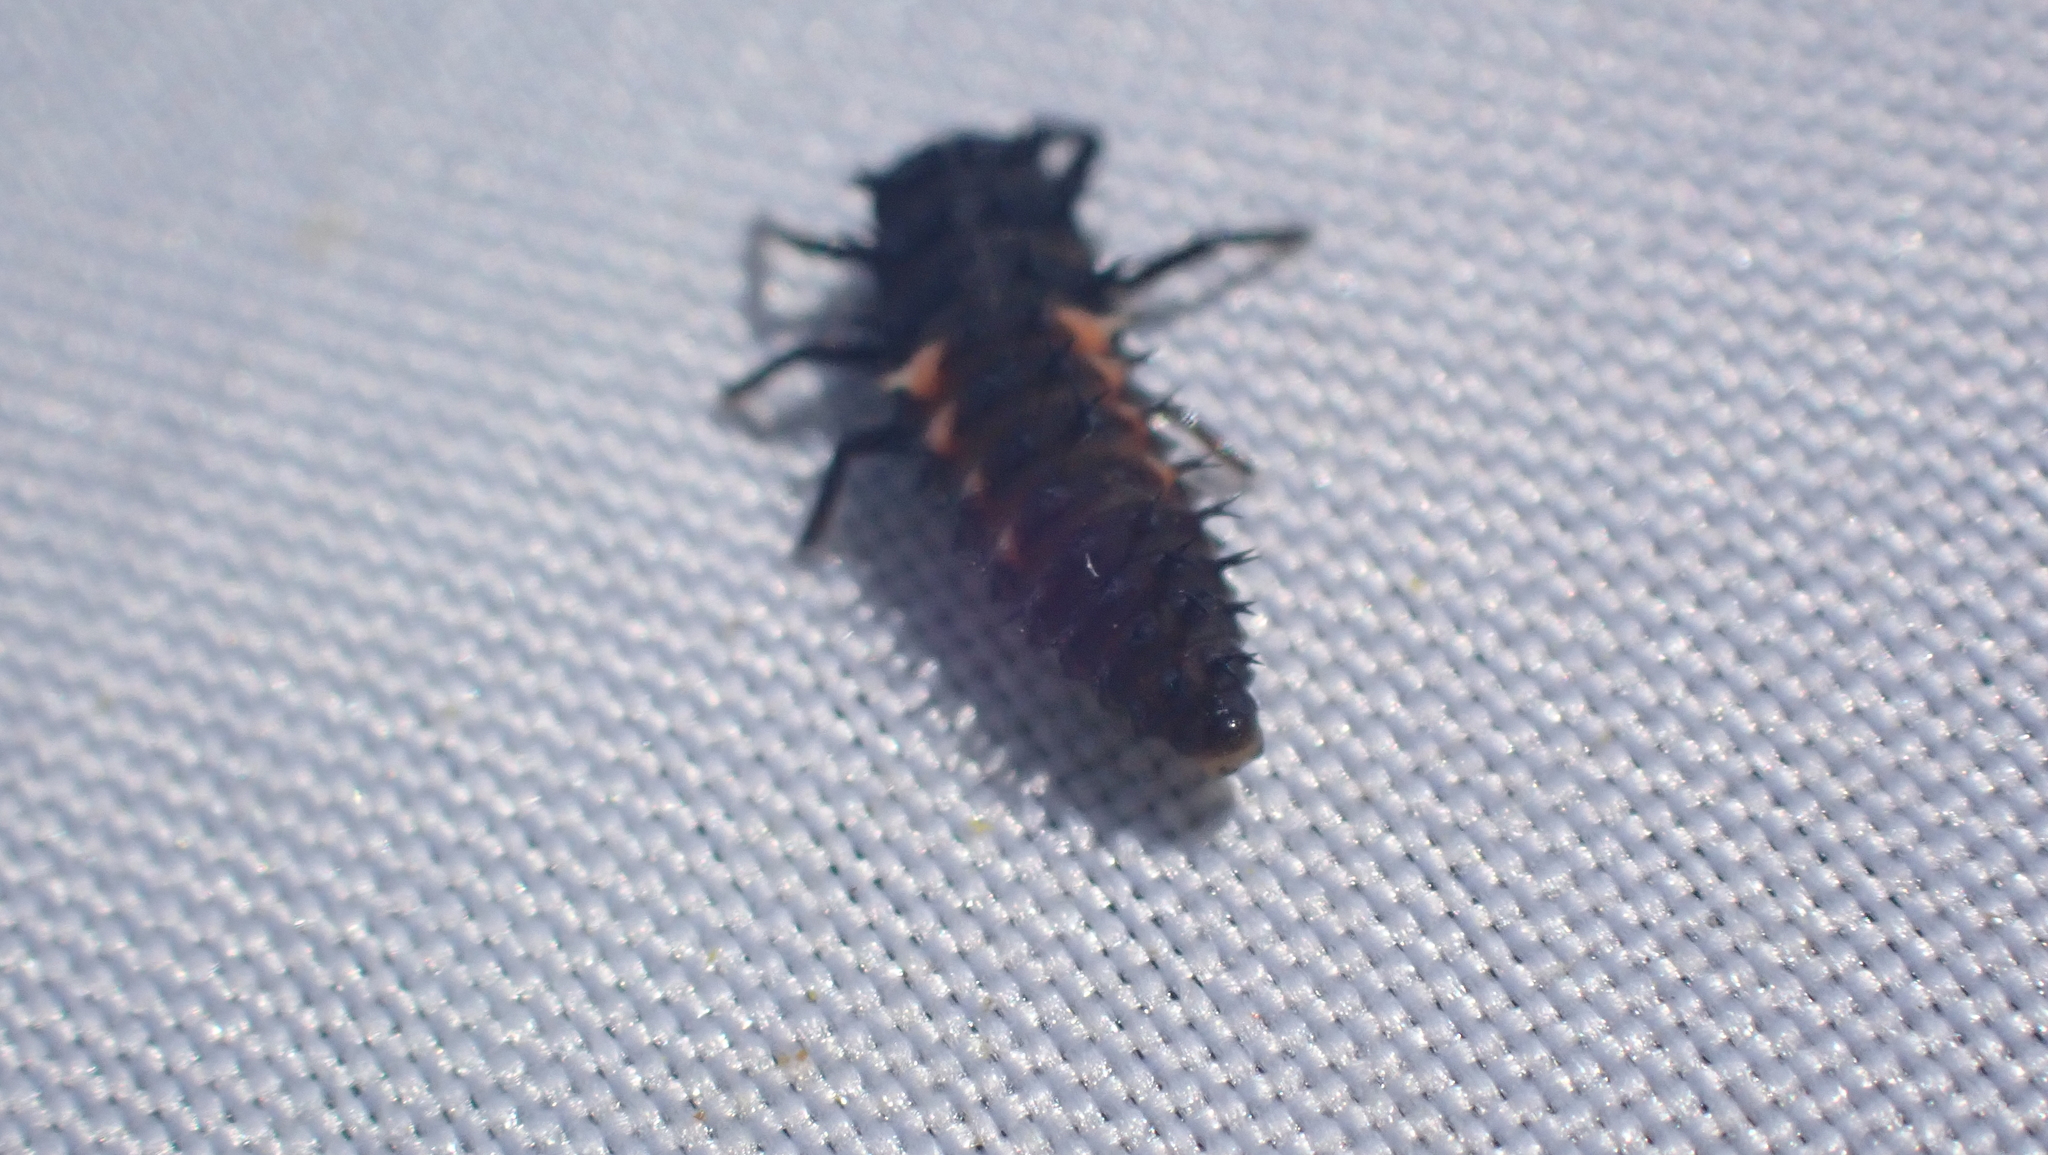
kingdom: Animalia
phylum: Arthropoda
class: Insecta
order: Coleoptera
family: Coccinellidae
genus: Harmonia
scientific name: Harmonia axyridis
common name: Harlequin ladybird
